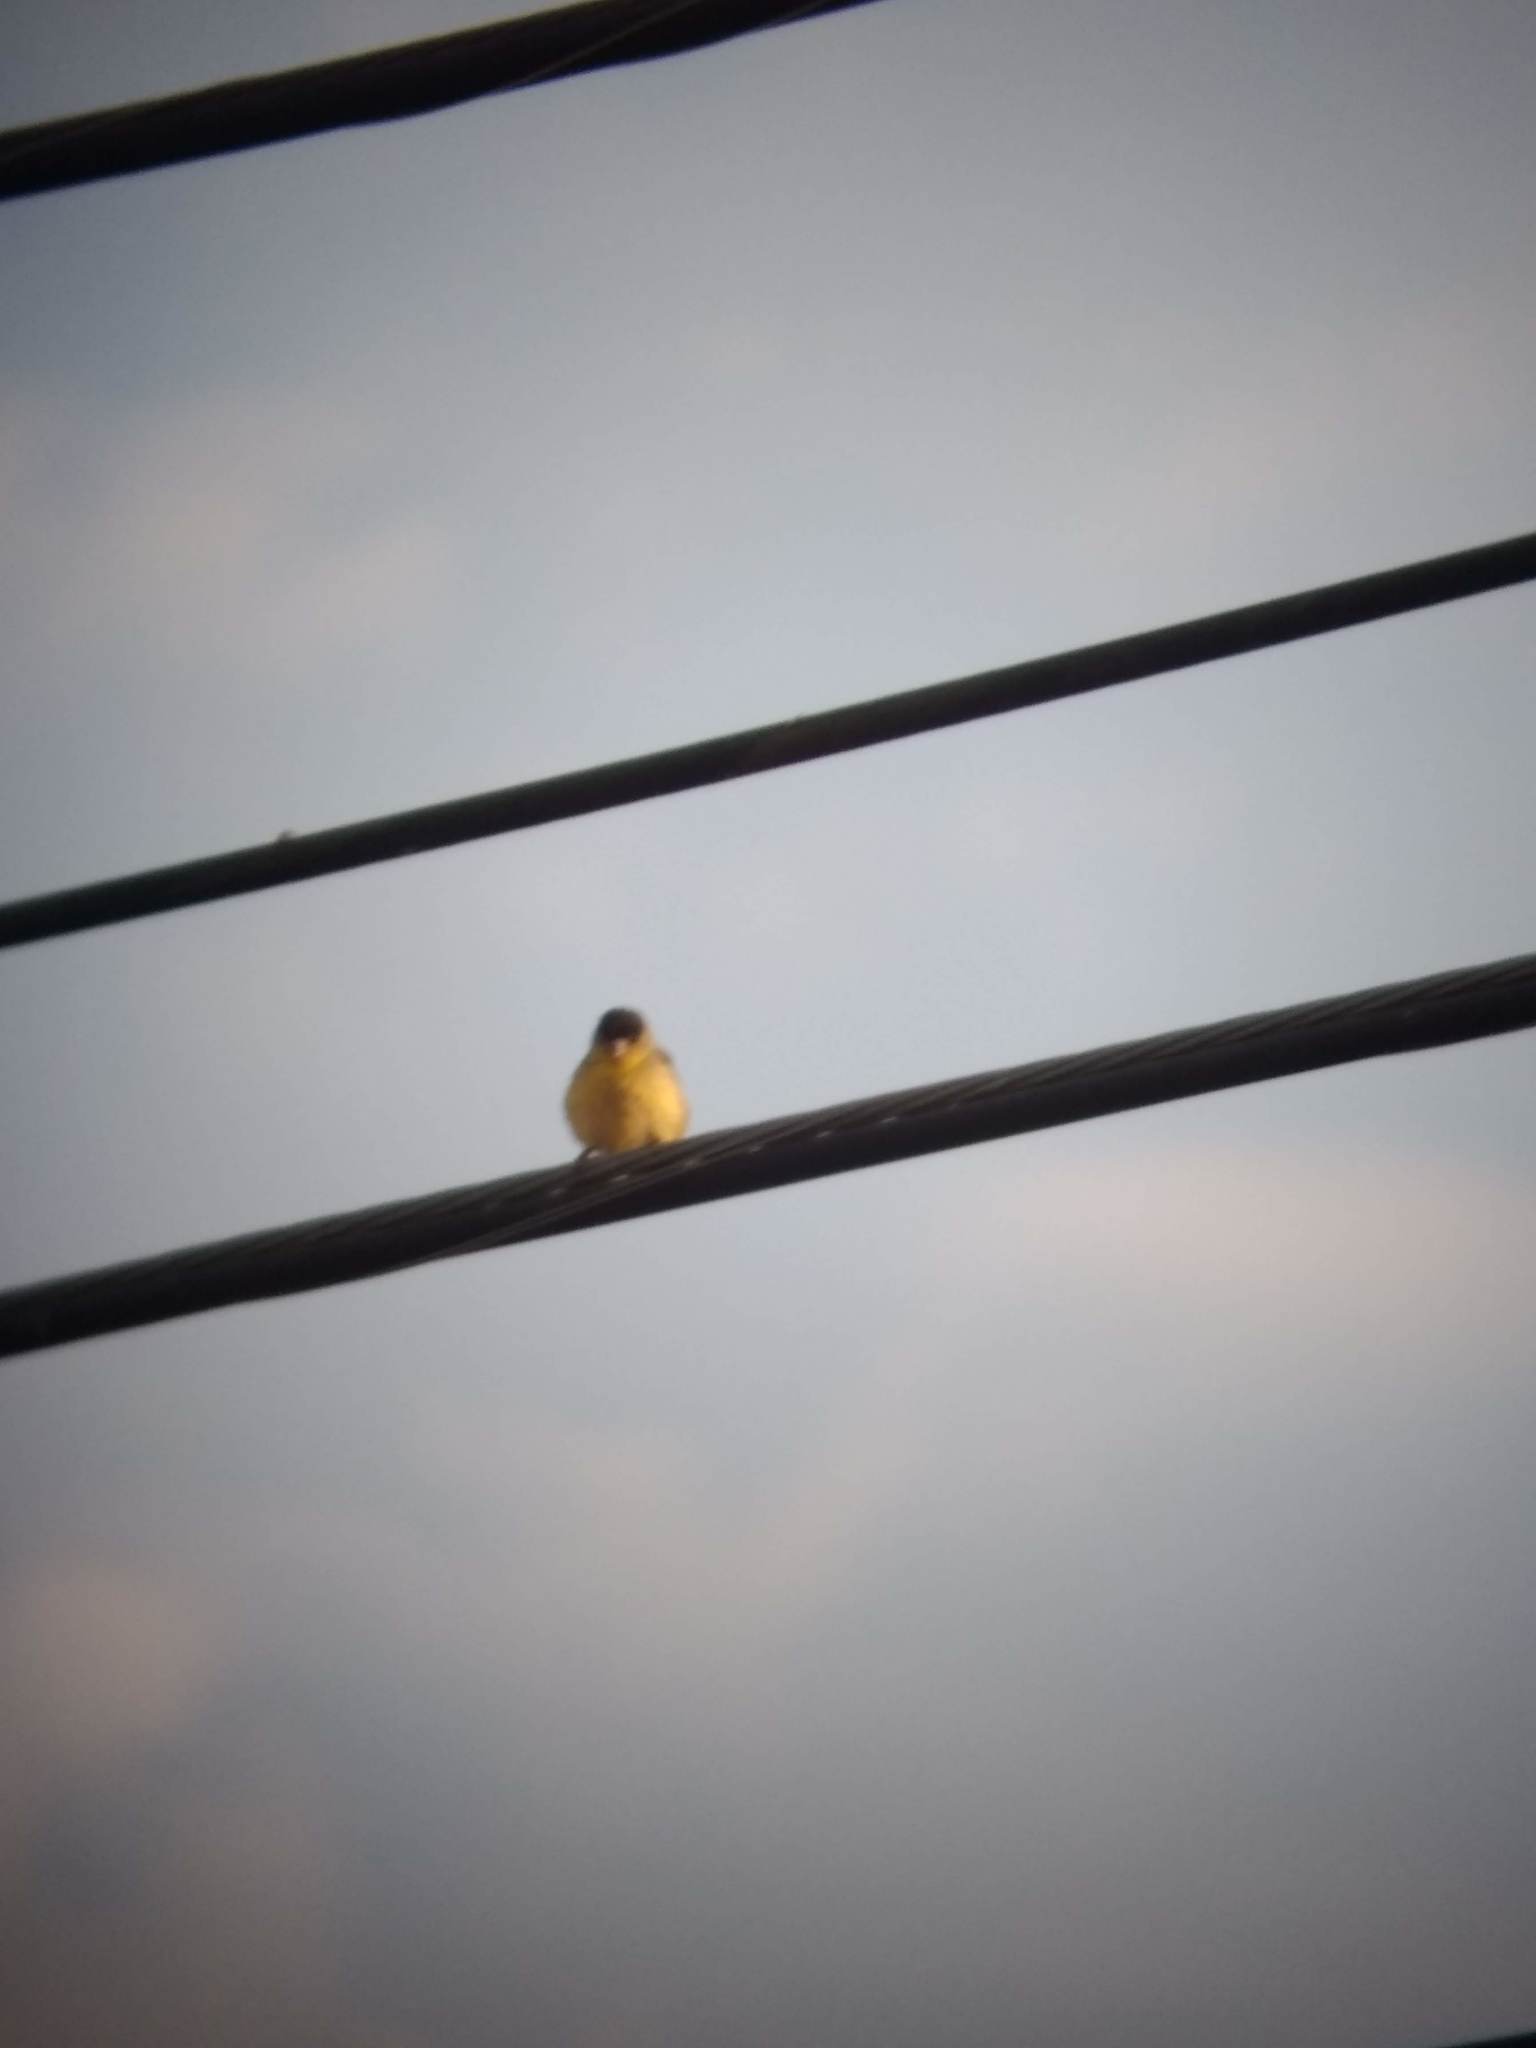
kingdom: Animalia
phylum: Chordata
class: Aves
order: Passeriformes
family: Fringillidae
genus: Spinus
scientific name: Spinus psaltria
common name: Lesser goldfinch
